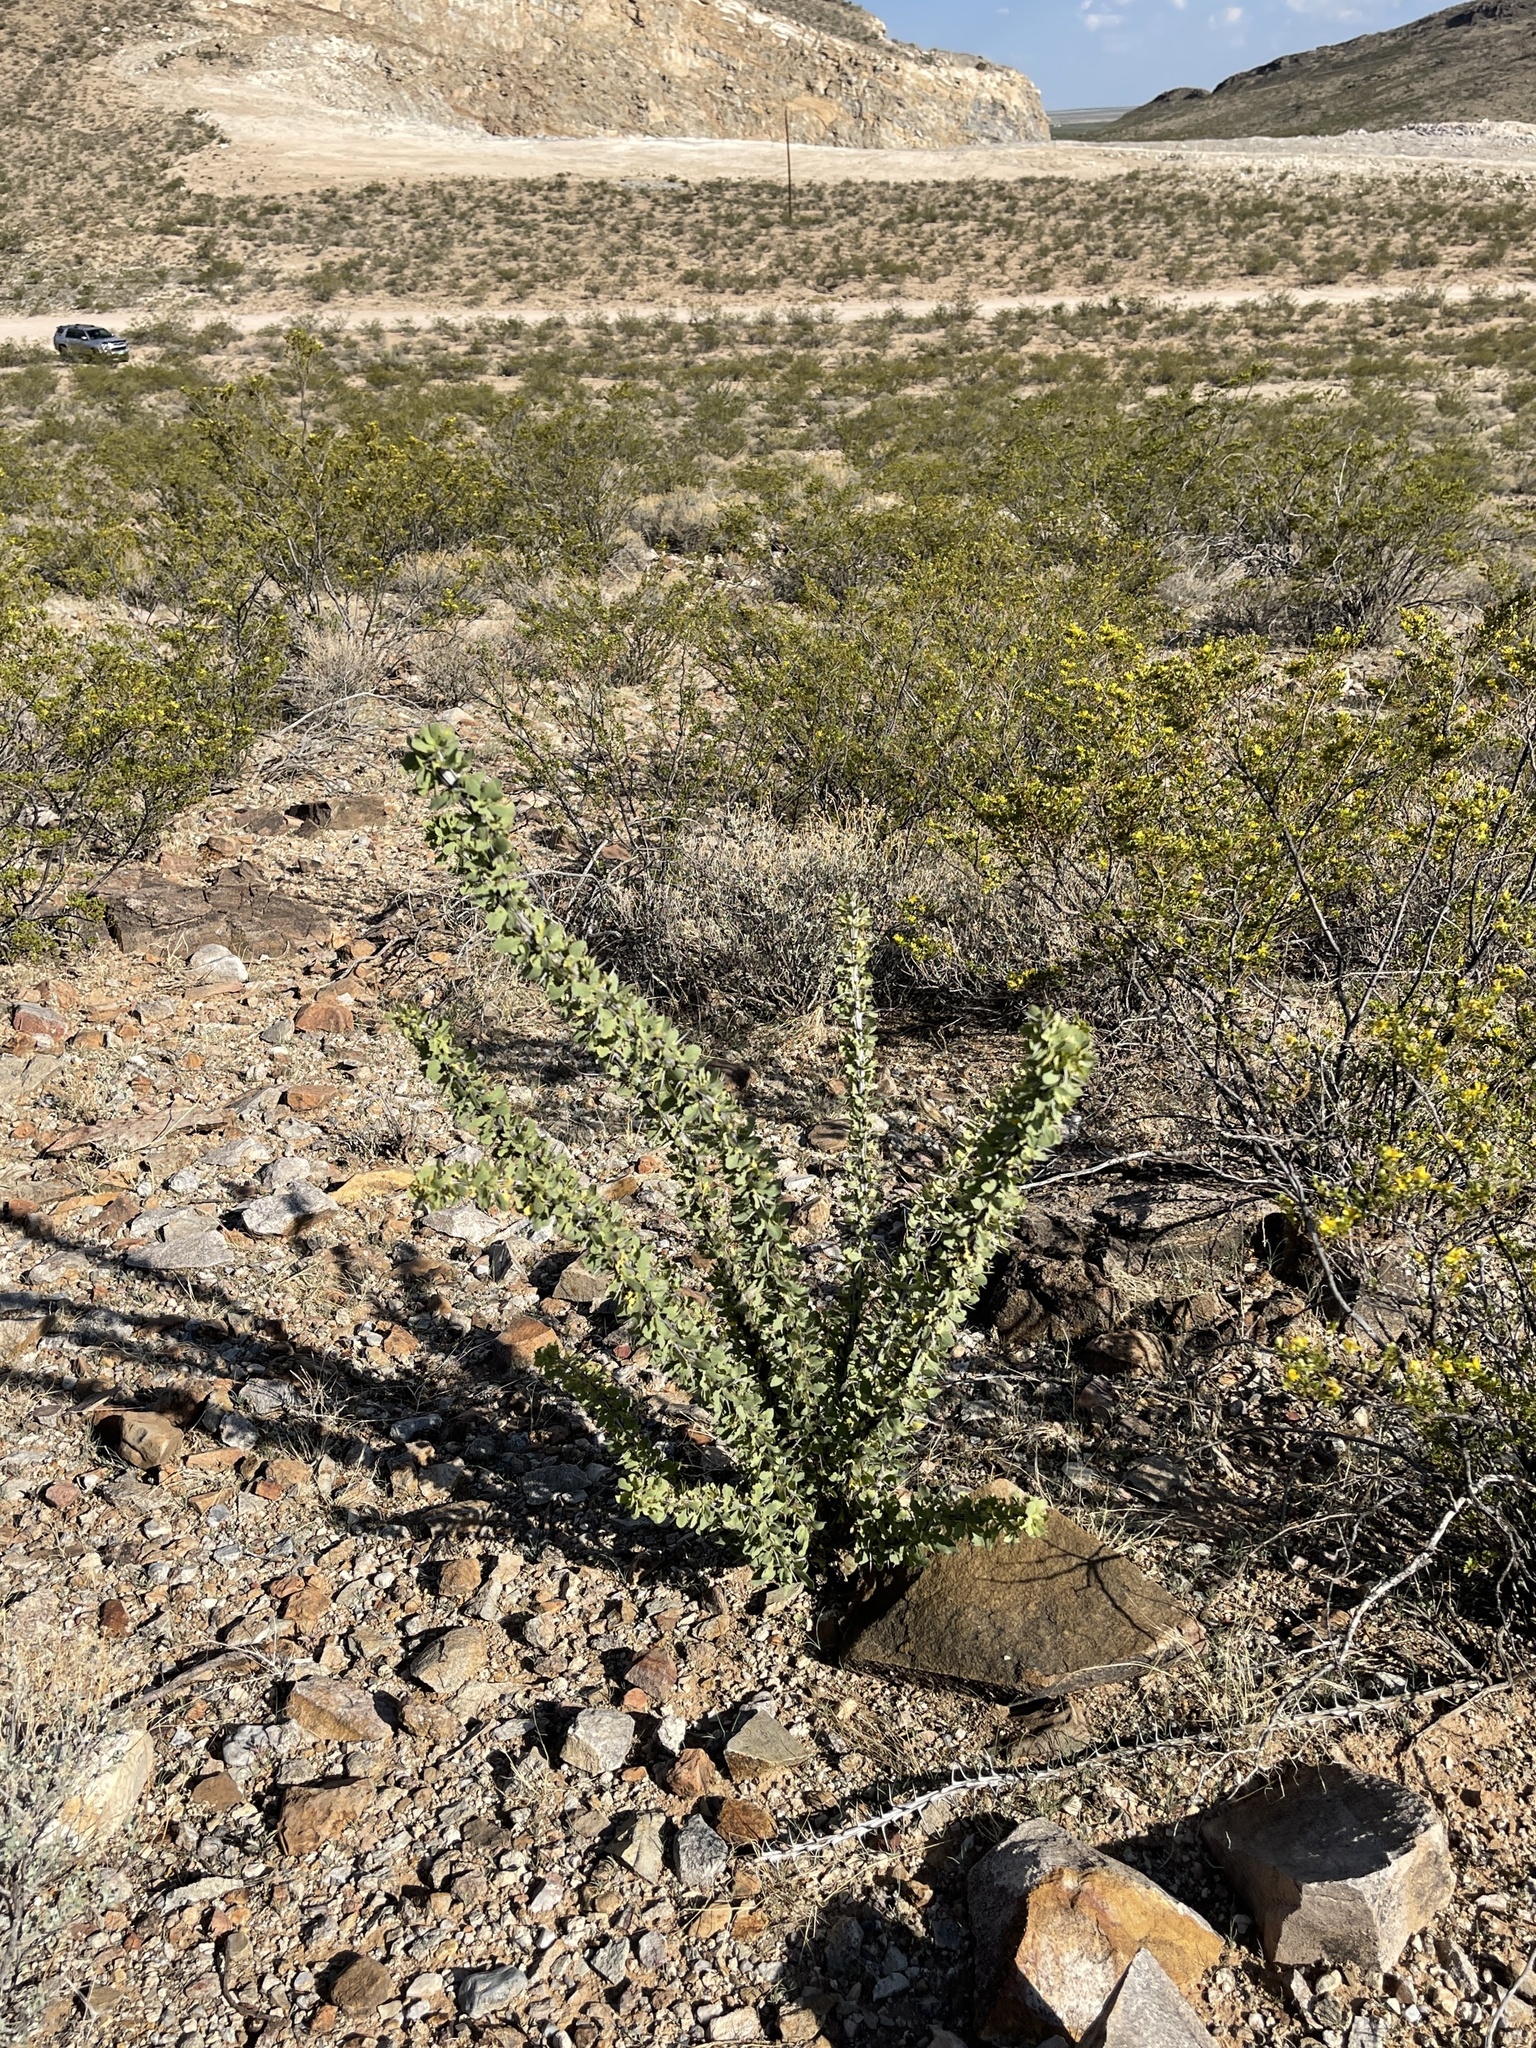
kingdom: Plantae
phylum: Tracheophyta
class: Magnoliopsida
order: Ericales
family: Fouquieriaceae
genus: Fouquieria
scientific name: Fouquieria splendens
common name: Vine-cactus
